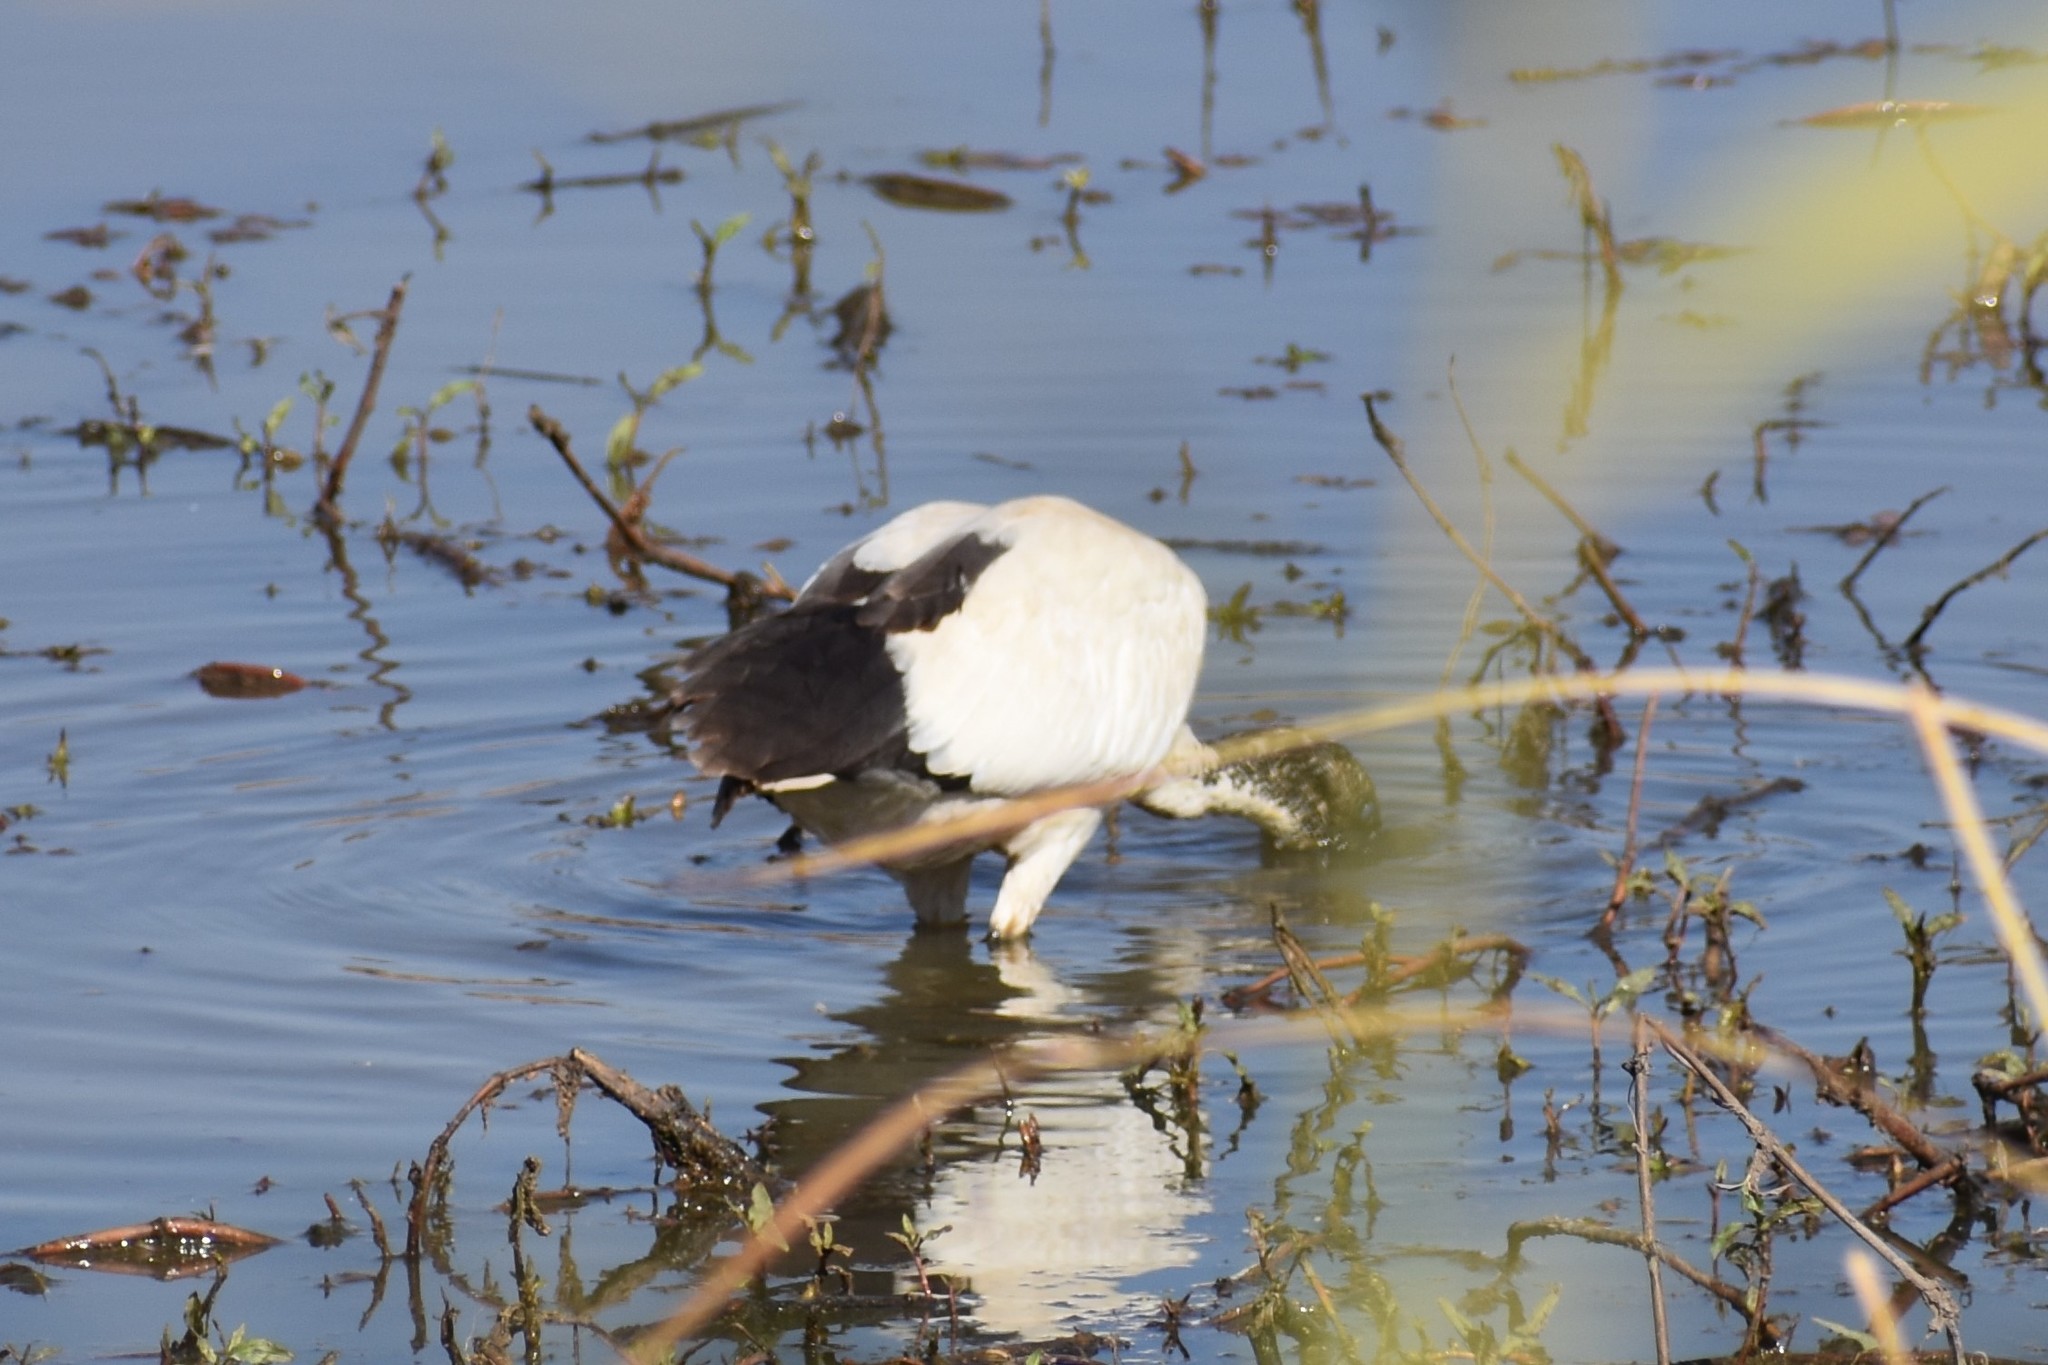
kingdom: Animalia
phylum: Chordata
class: Aves
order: Pelecaniformes
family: Threskiornithidae
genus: Threskiornis
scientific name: Threskiornis aethiopicus
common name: Sacred ibis
